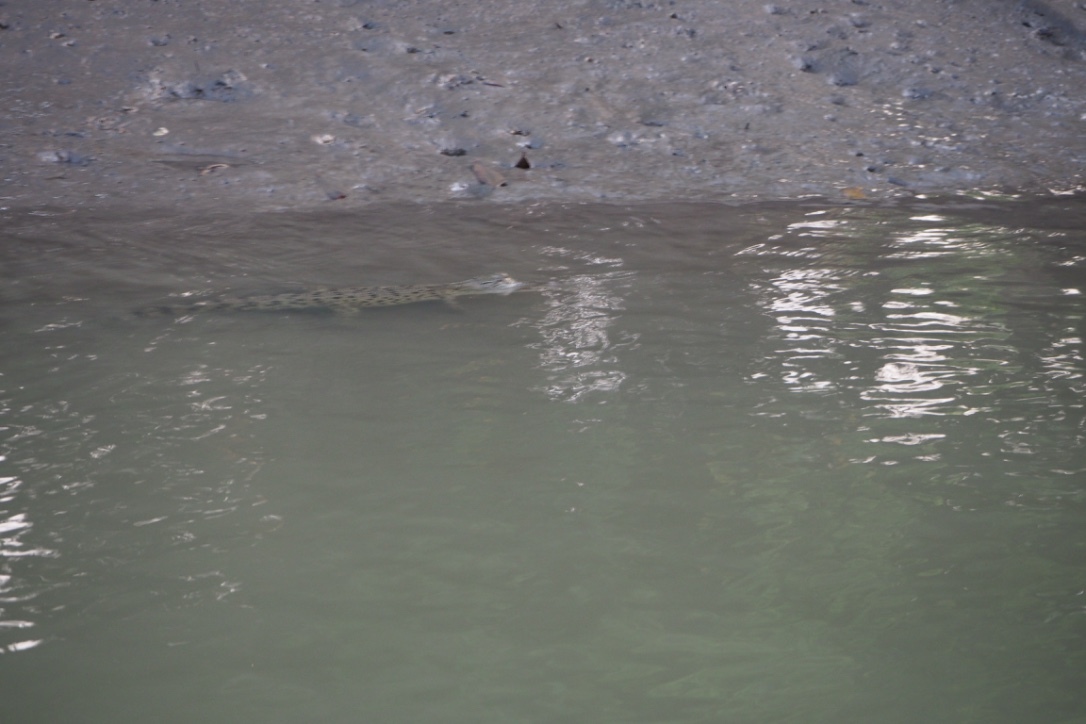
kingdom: Animalia
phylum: Chordata
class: Crocodylia
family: Crocodylidae
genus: Crocodylus
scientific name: Crocodylus porosus
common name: Saltwater crocodile
